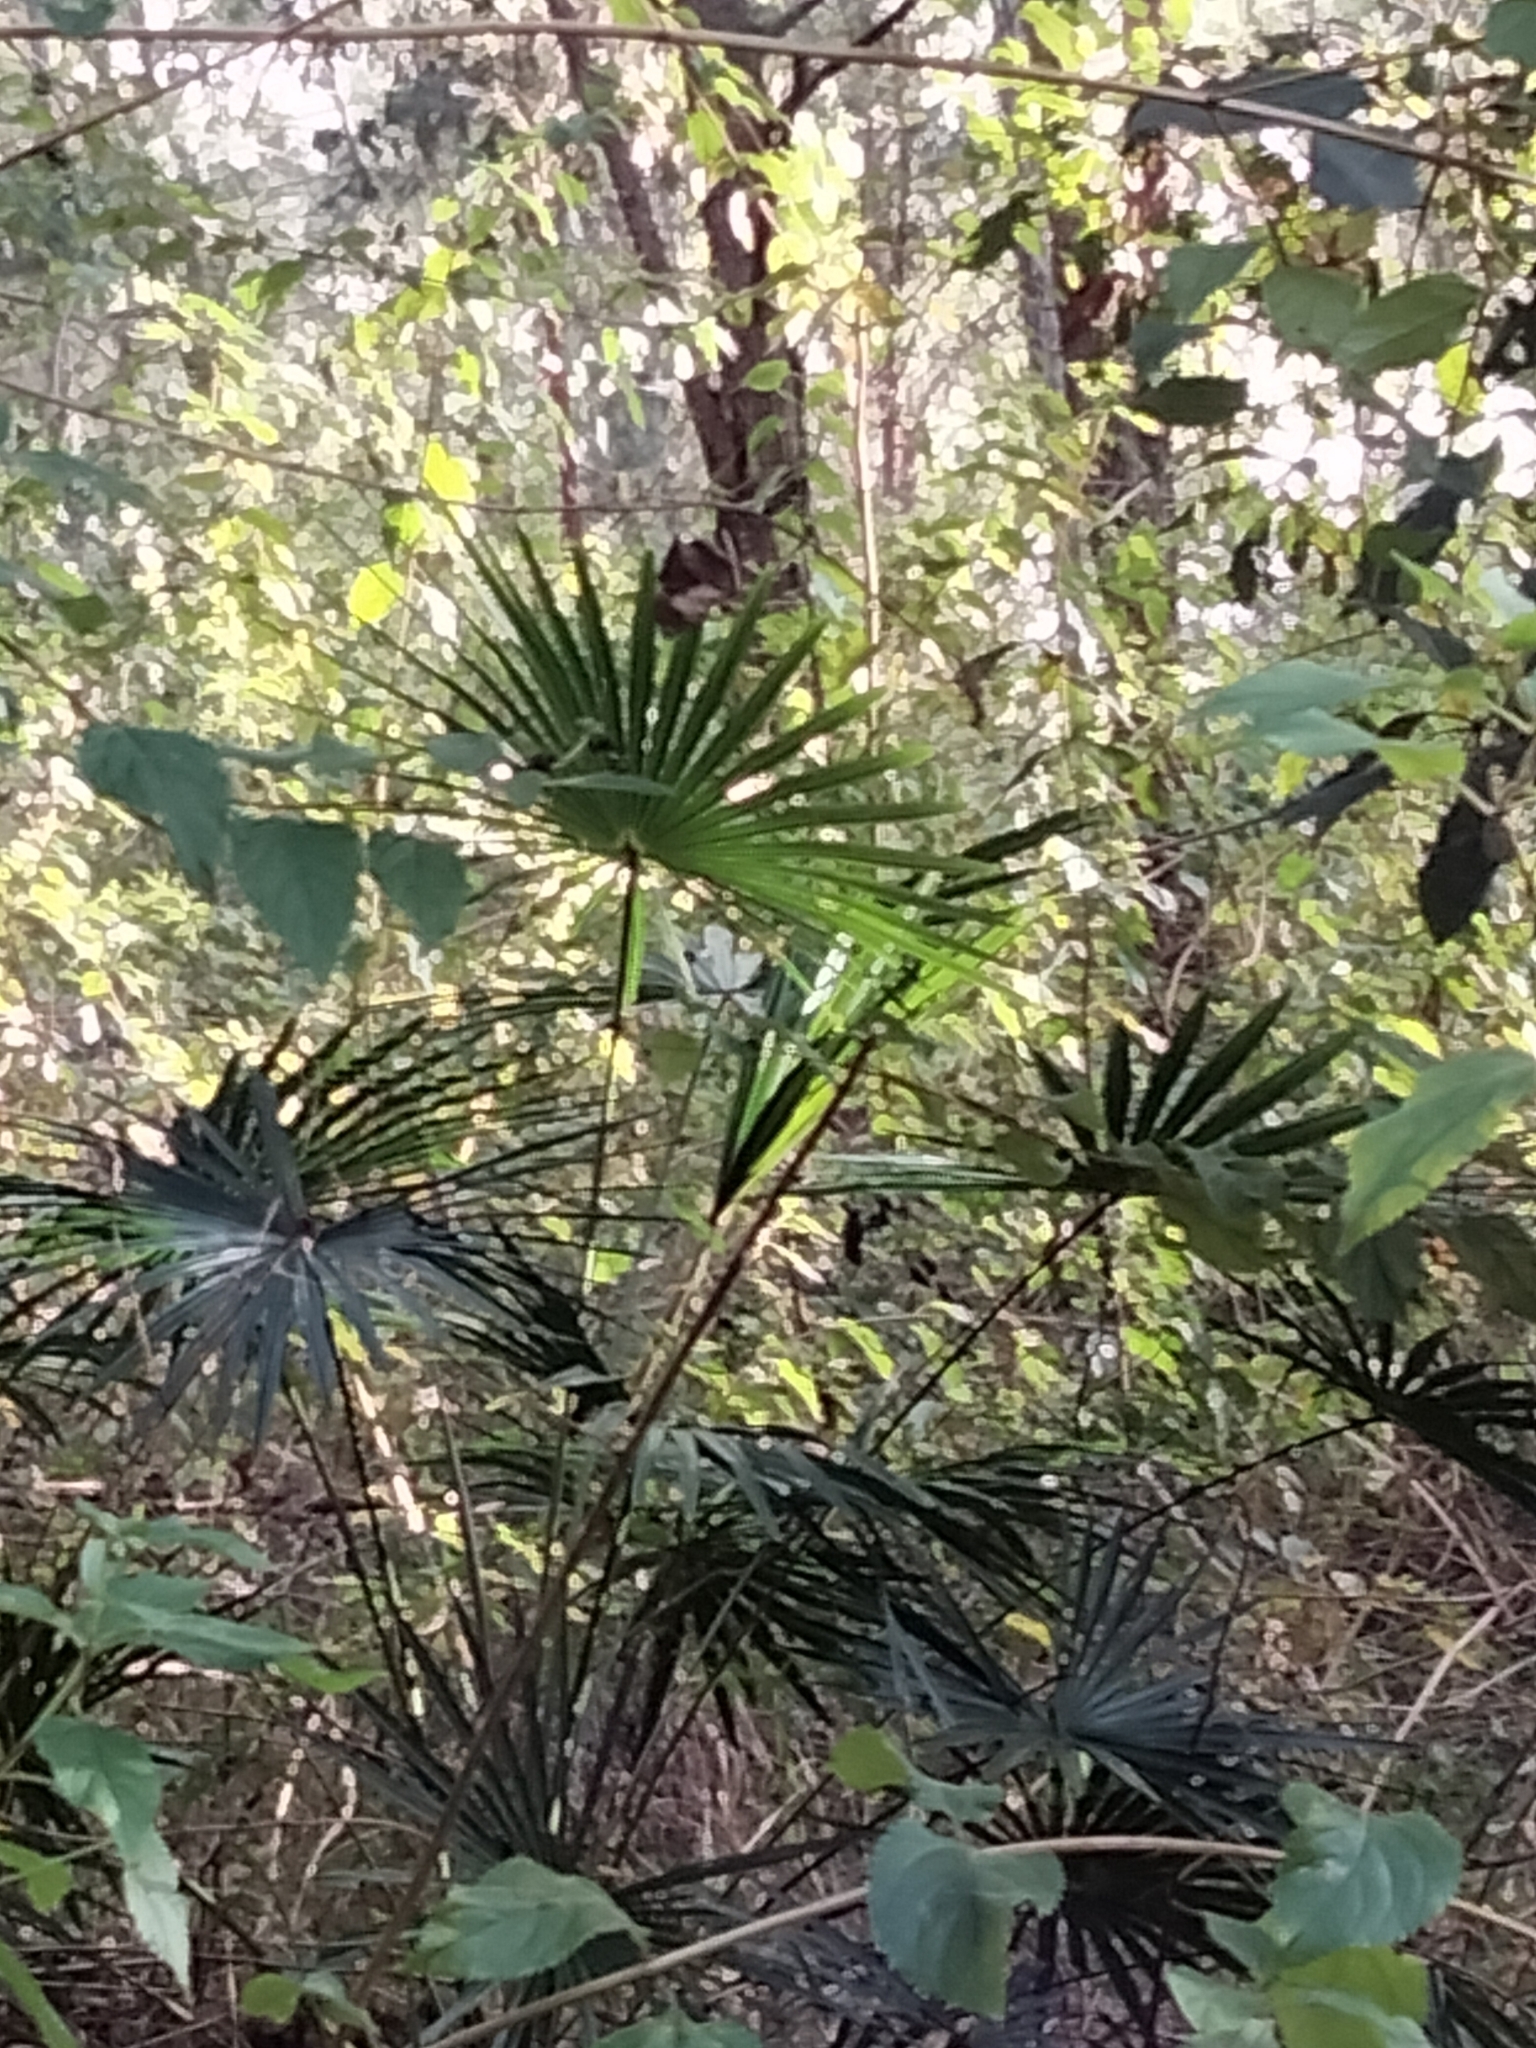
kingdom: Plantae
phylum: Tracheophyta
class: Liliopsida
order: Arecales
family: Arecaceae
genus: Livistona
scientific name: Livistona australis
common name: Cabbage fan palm
